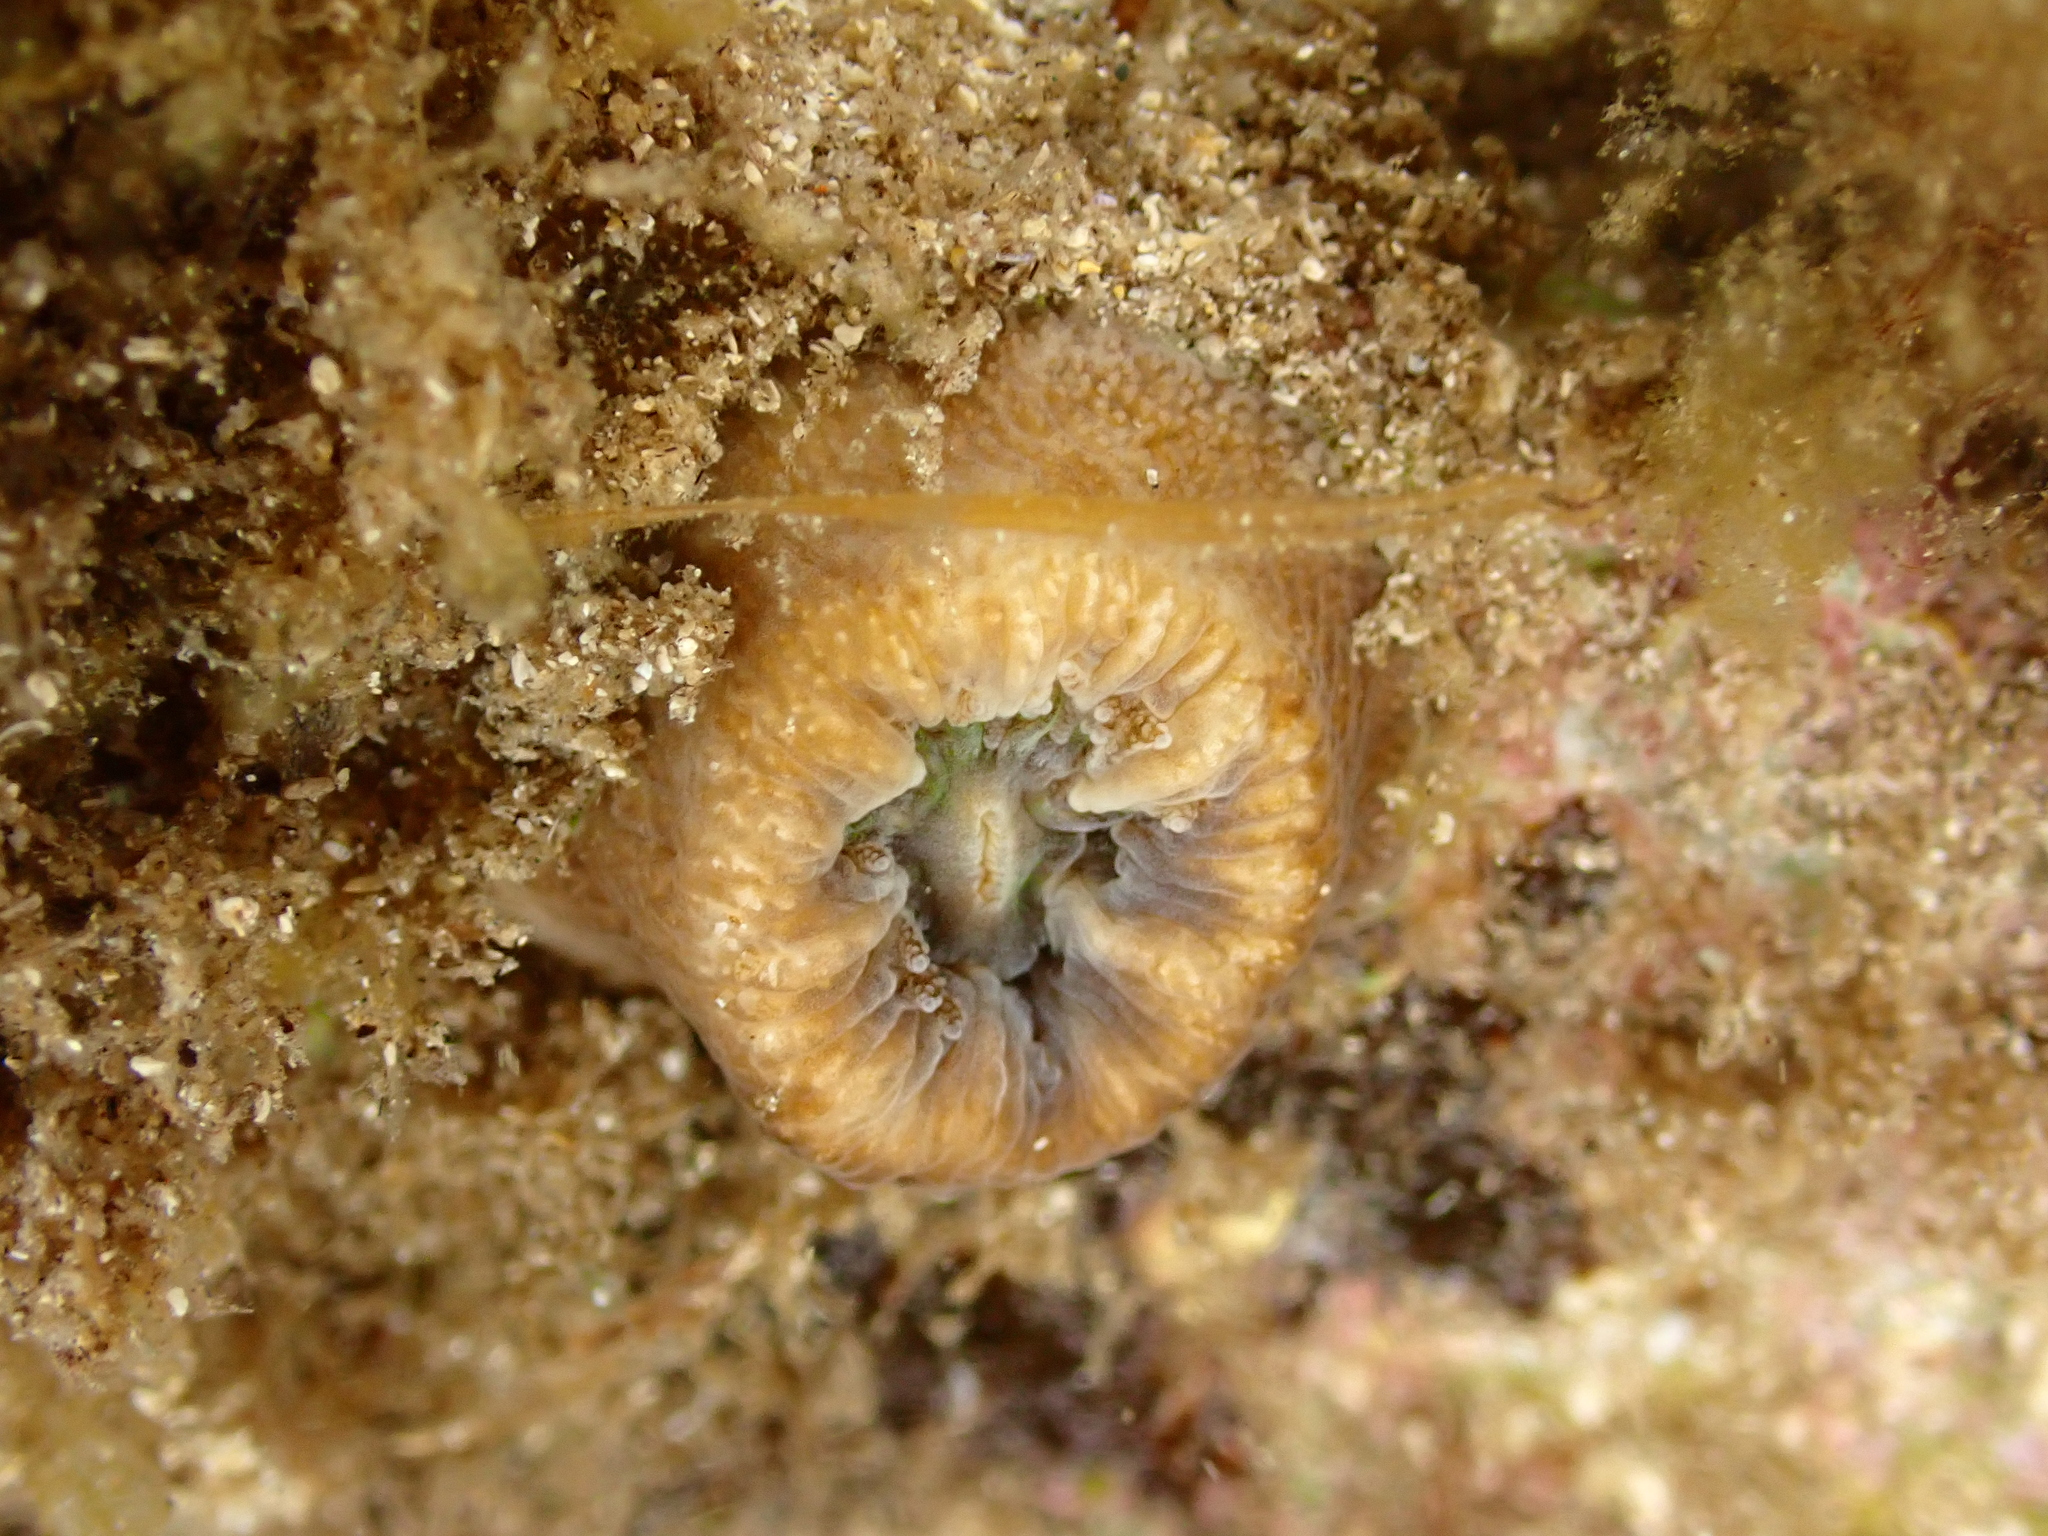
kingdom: Animalia
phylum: Cnidaria
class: Anthozoa
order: Scleractinia
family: Dendrophylliidae
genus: Balanophyllia
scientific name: Balanophyllia europaea
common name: Scarlet coral
